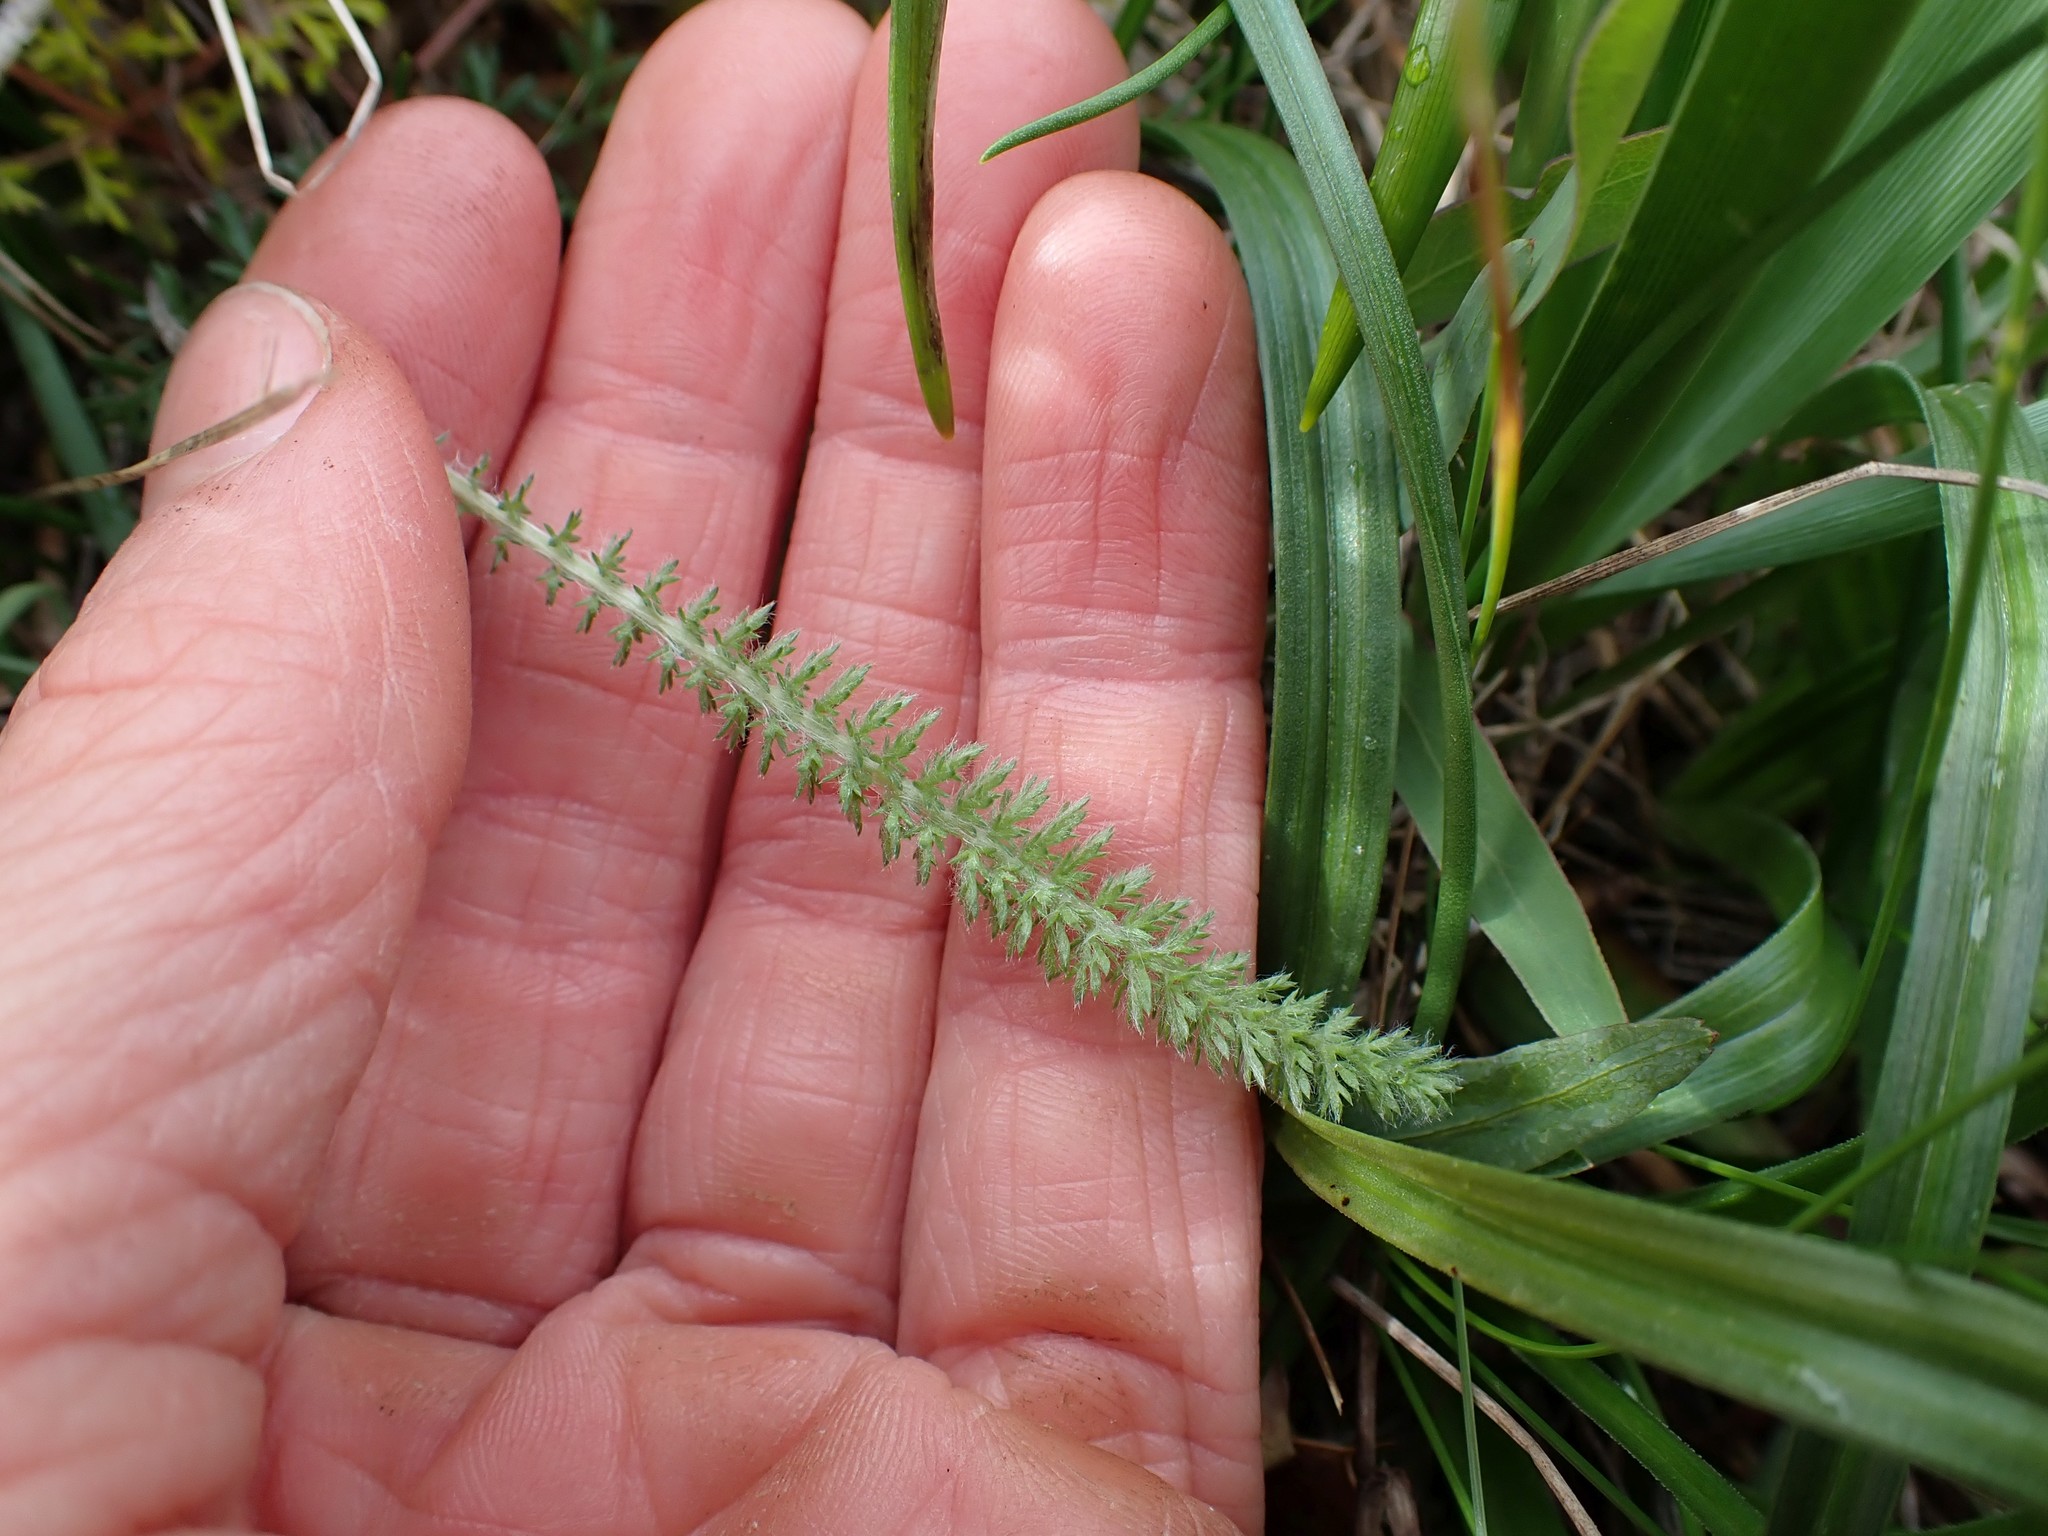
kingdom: Plantae
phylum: Tracheophyta
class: Magnoliopsida
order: Asterales
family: Asteraceae
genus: Achillea
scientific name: Achillea millefolium
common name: Yarrow
